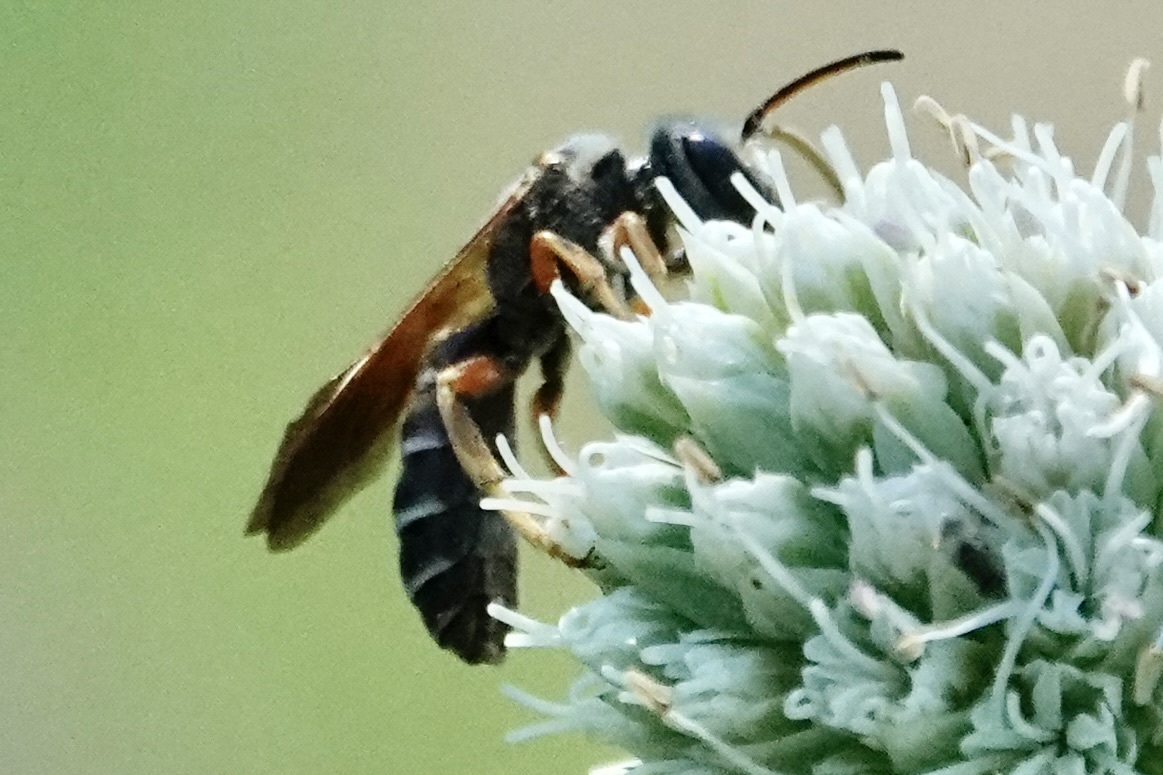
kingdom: Animalia
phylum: Arthropoda
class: Insecta
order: Hymenoptera
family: Halictidae
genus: Halictus
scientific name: Halictus parallelus
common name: Parallel-striped sweat bee
